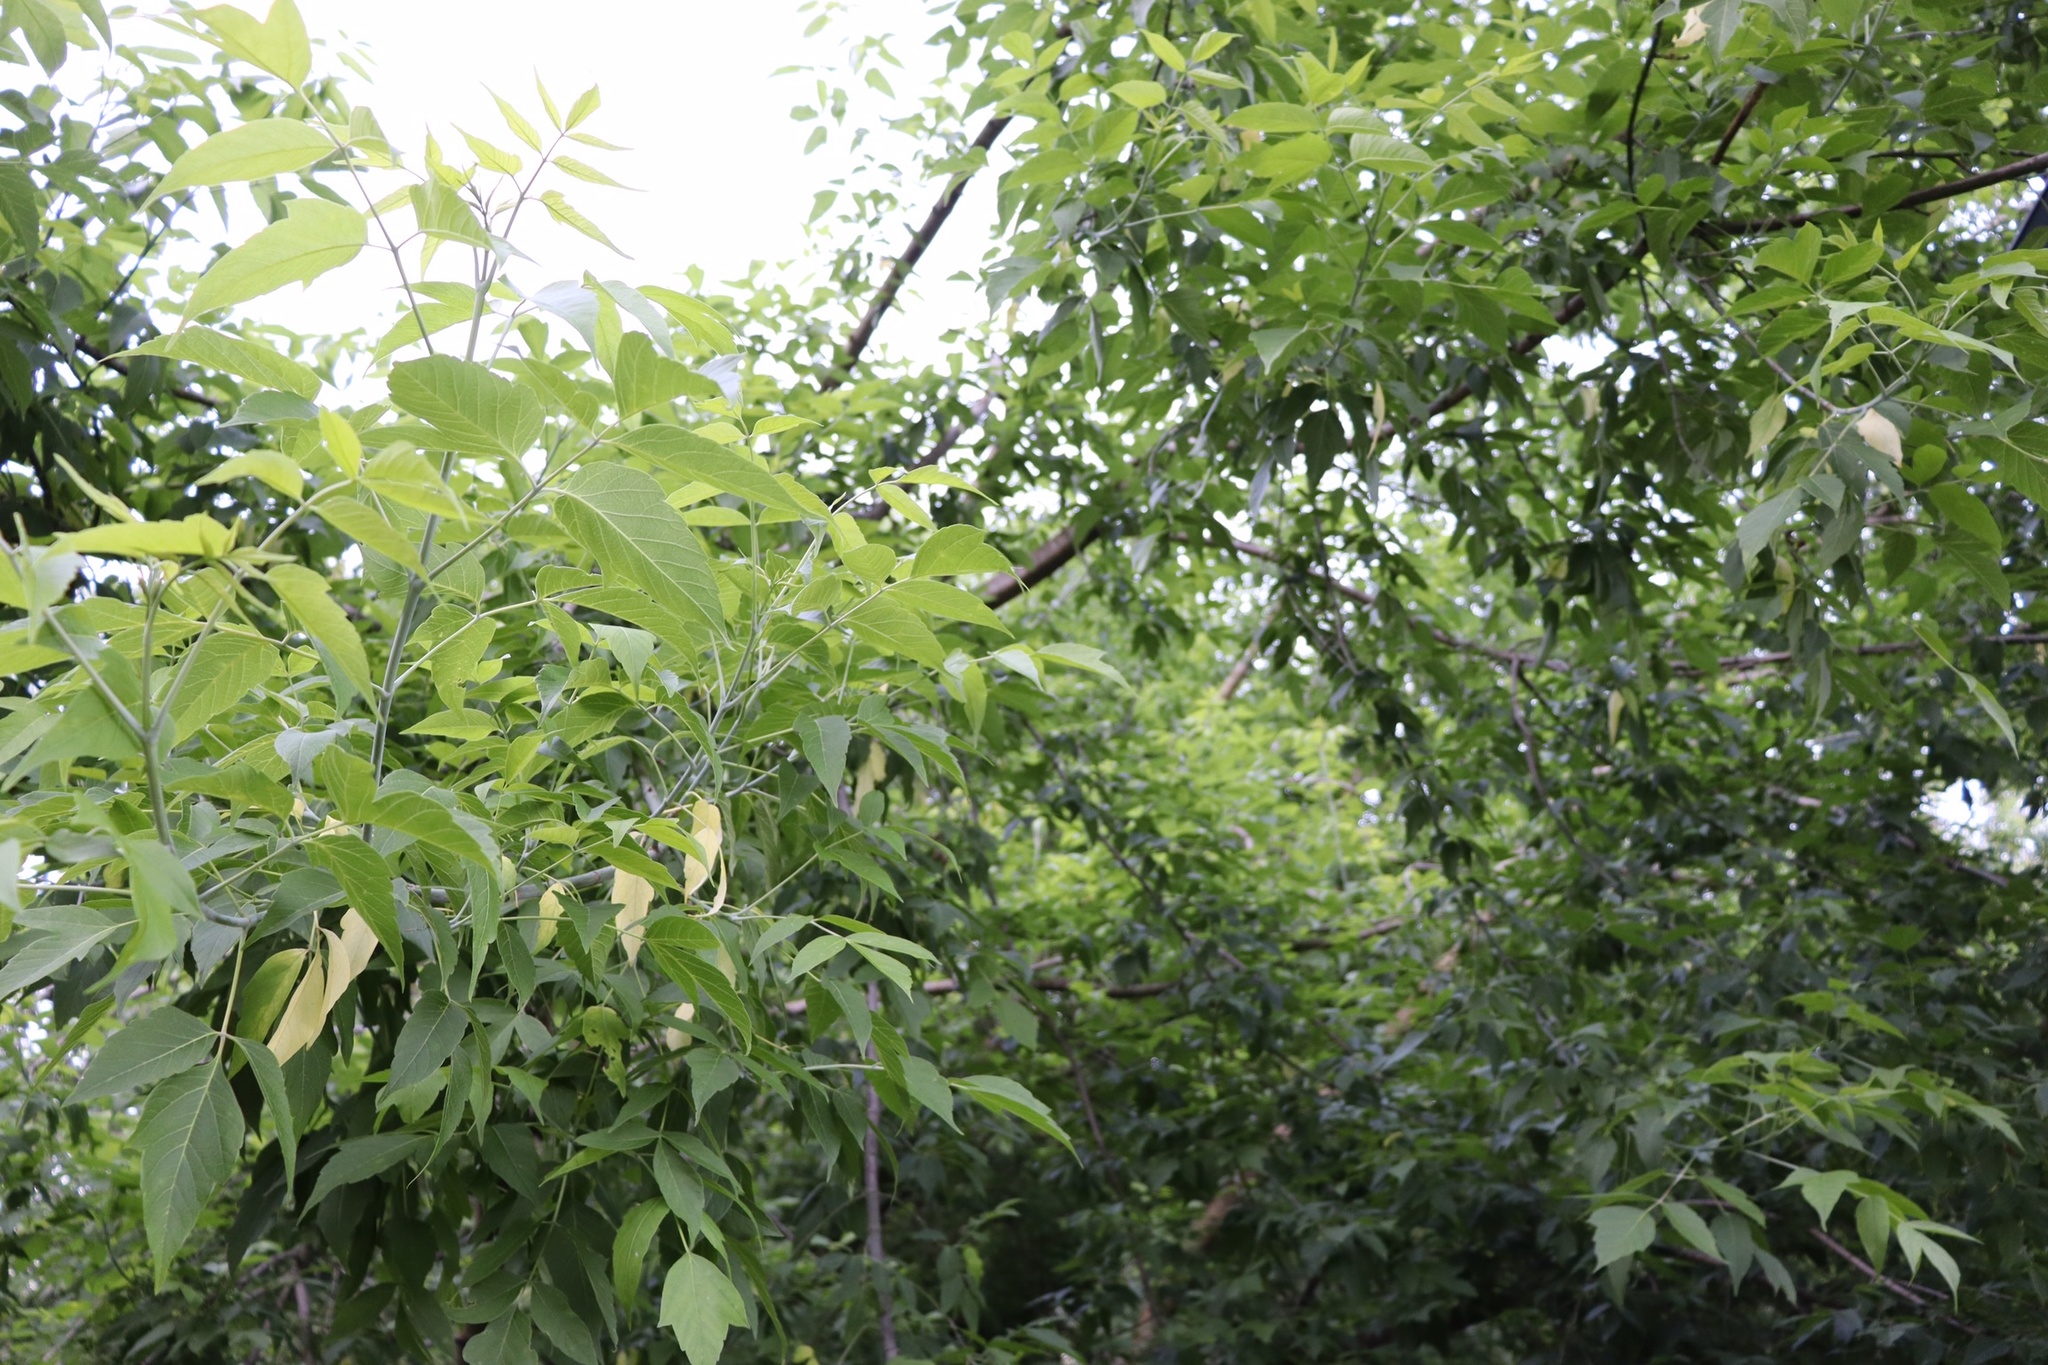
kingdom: Plantae
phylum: Tracheophyta
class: Magnoliopsida
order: Sapindales
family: Sapindaceae
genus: Acer
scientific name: Acer negundo
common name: Ashleaf maple
